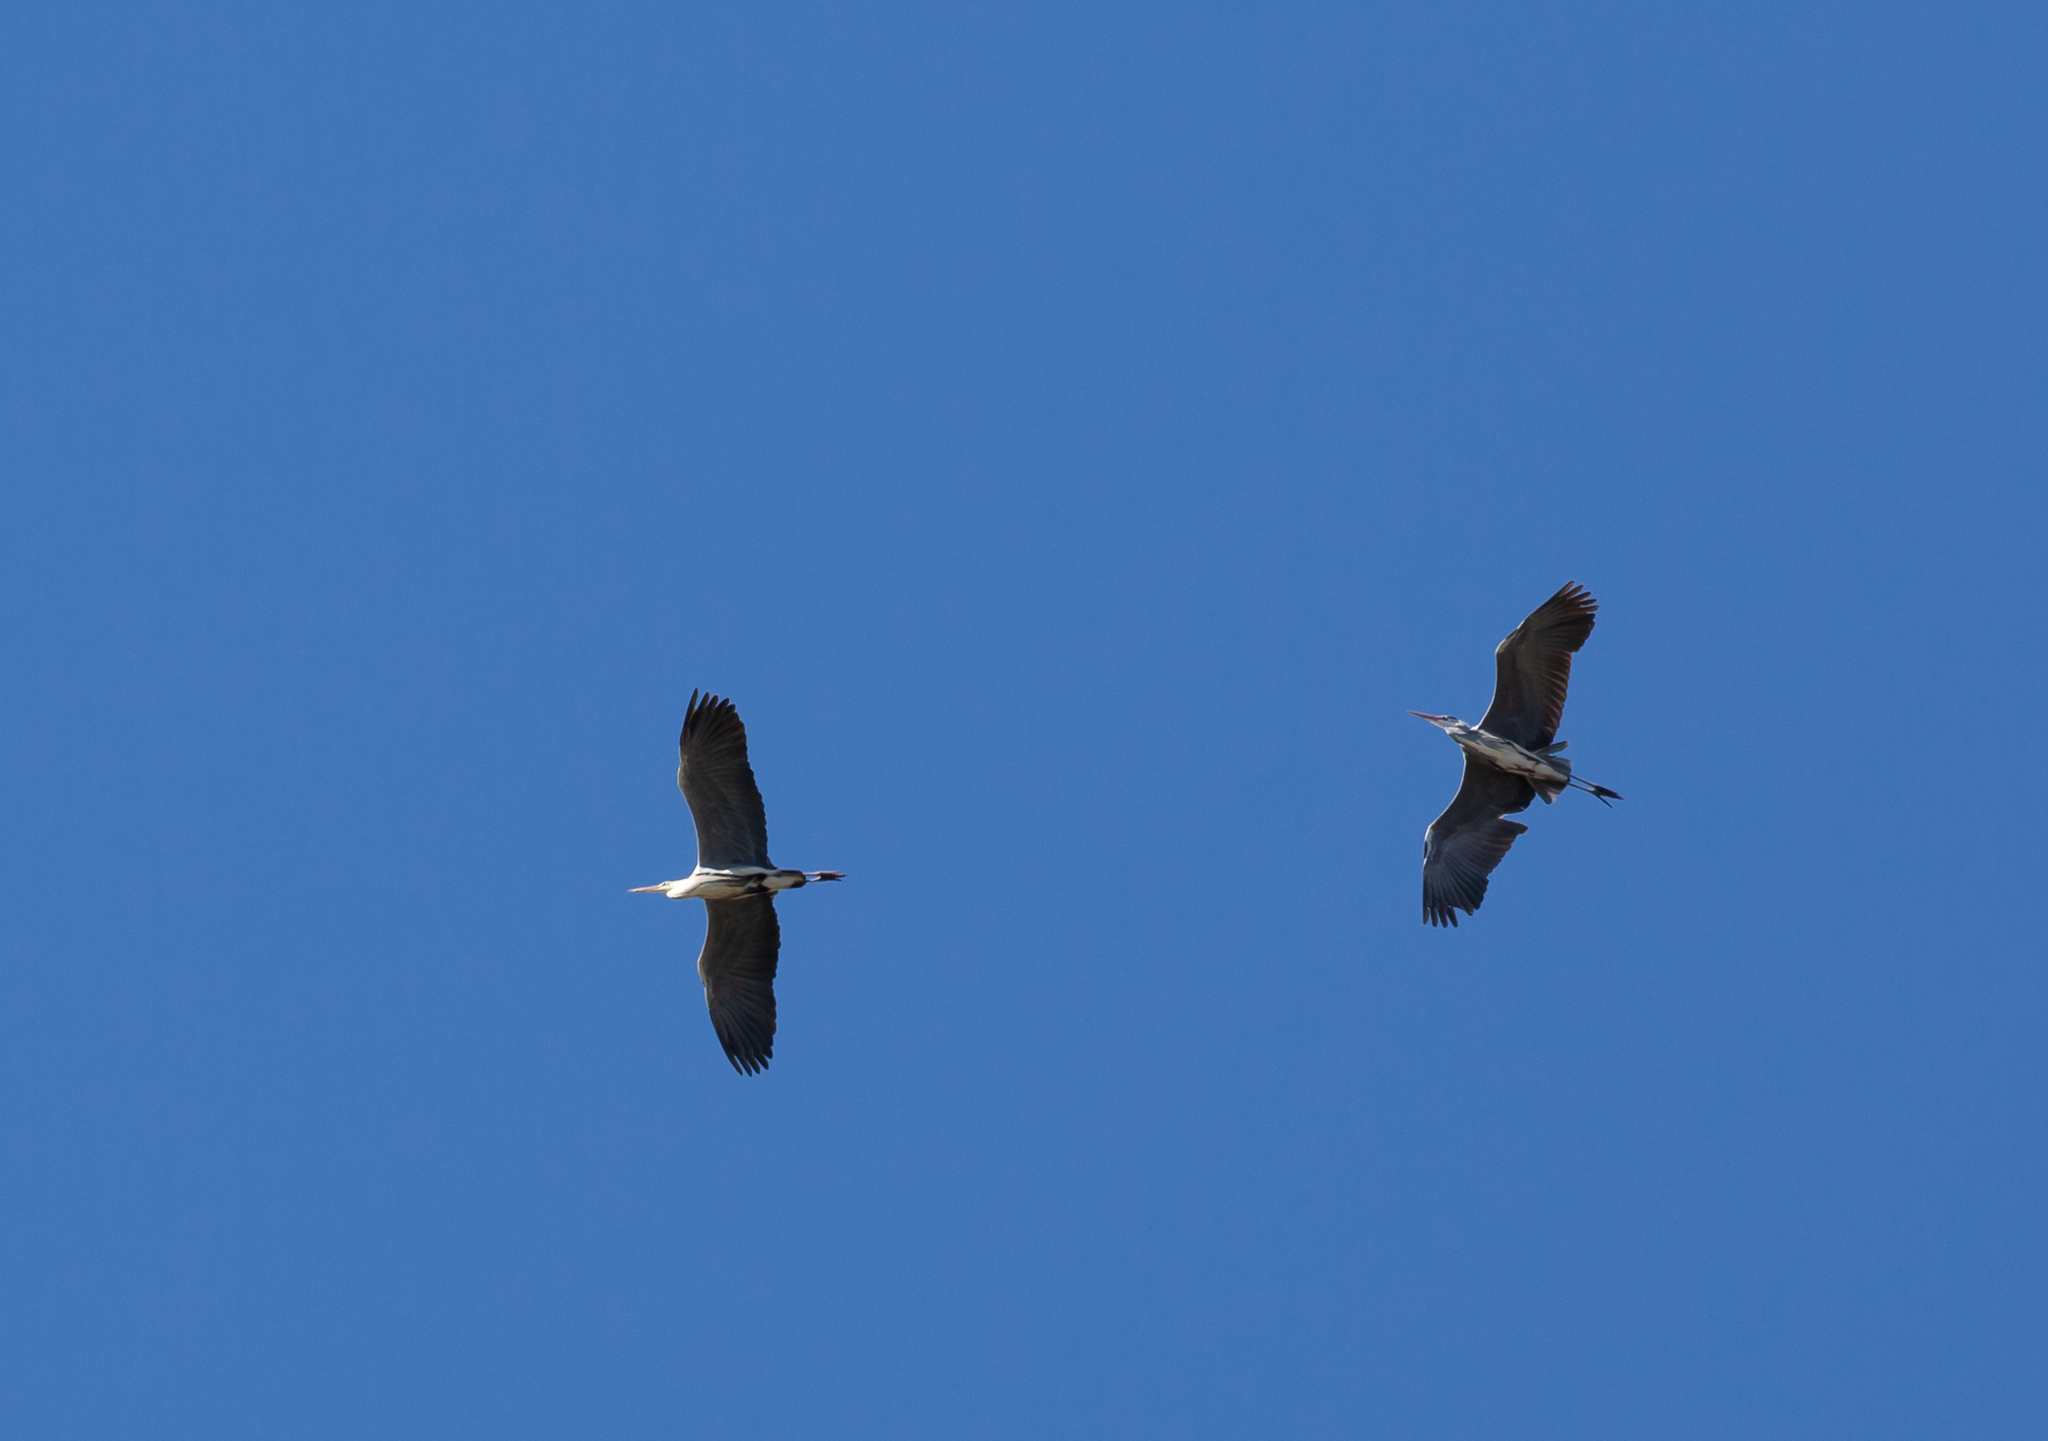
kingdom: Animalia
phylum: Chordata
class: Aves
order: Pelecaniformes
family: Ardeidae
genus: Ardea
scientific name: Ardea cinerea
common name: Grey heron
